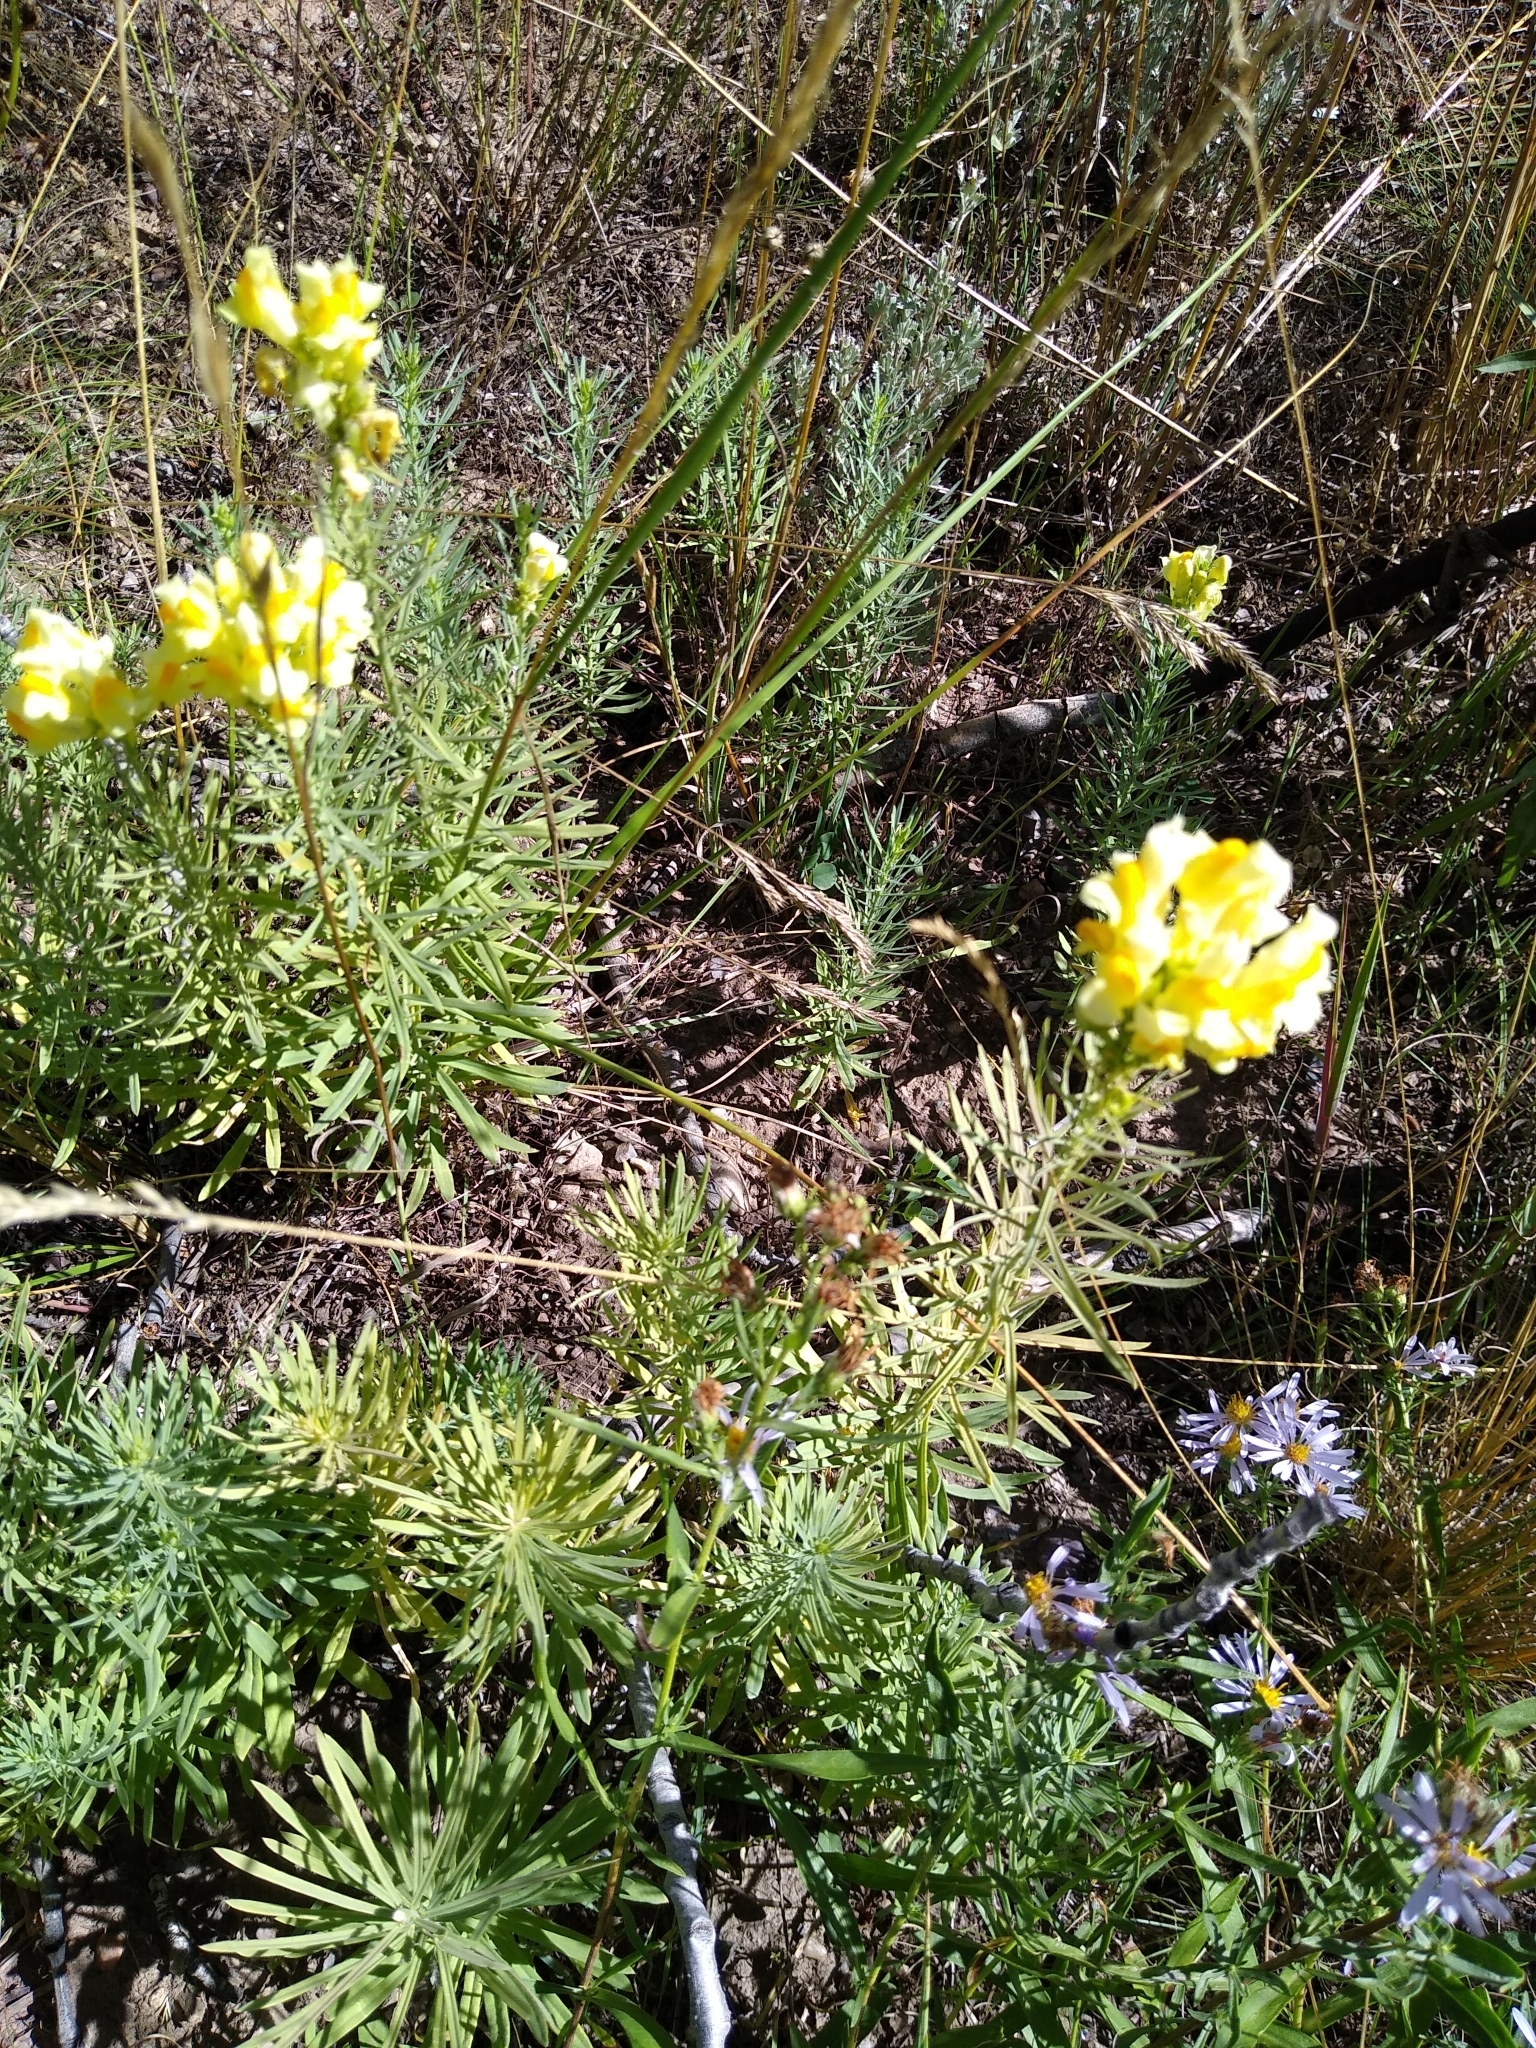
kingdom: Plantae
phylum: Tracheophyta
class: Magnoliopsida
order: Lamiales
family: Plantaginaceae
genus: Linaria
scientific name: Linaria vulgaris
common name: Butter and eggs
